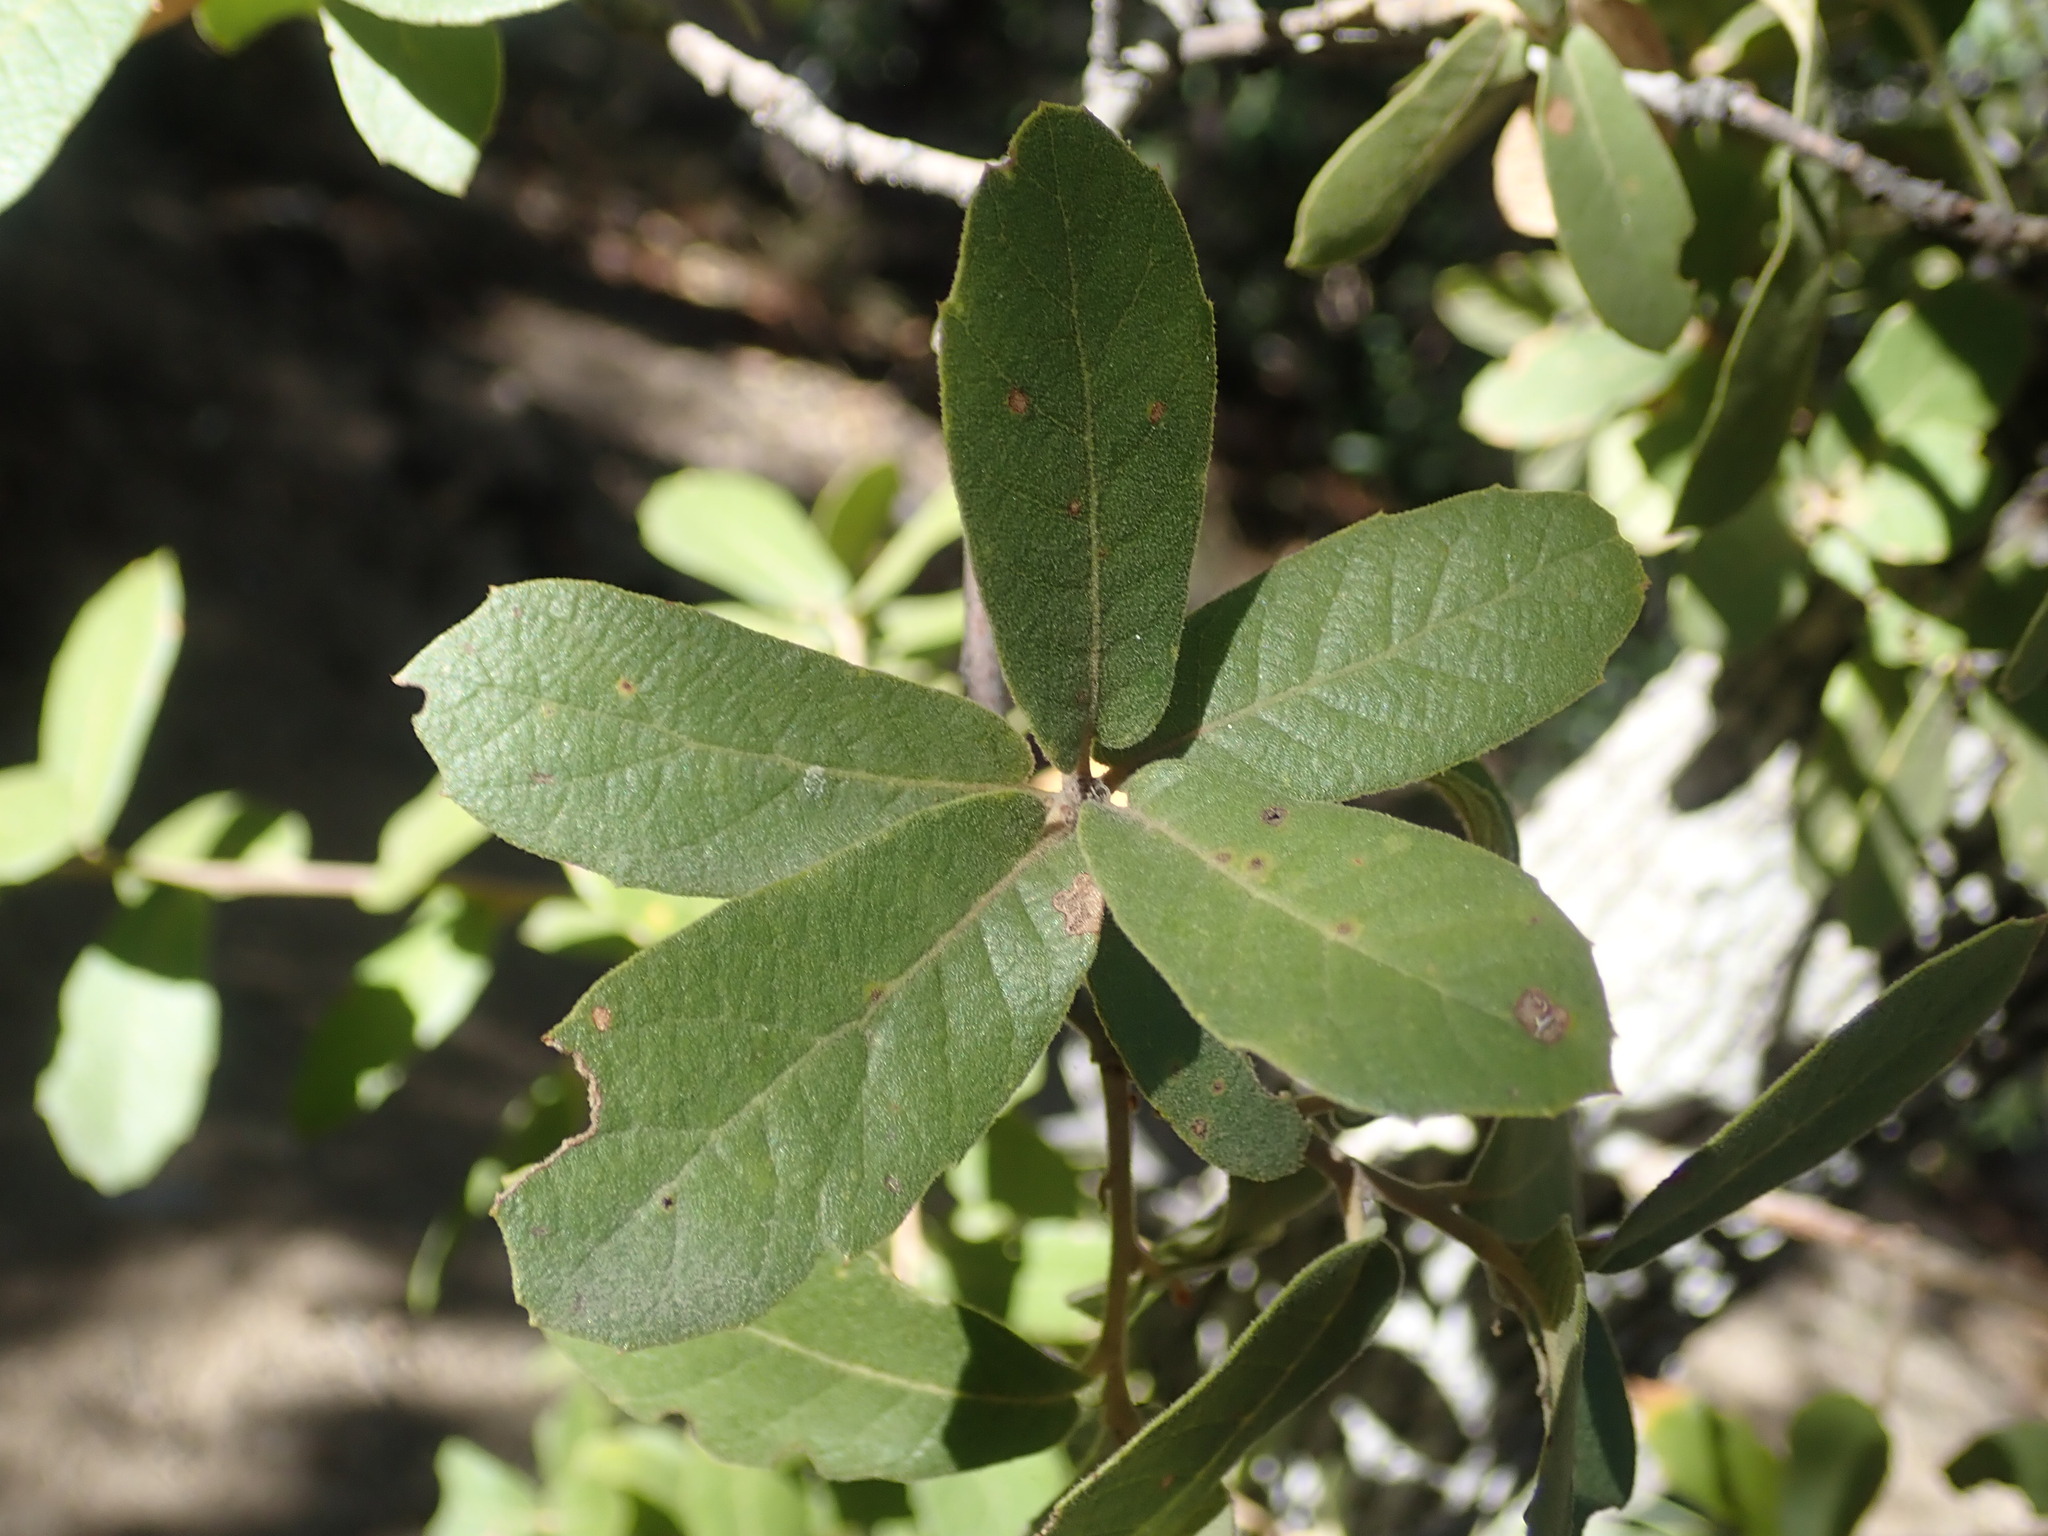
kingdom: Plantae
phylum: Tracheophyta
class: Magnoliopsida
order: Fagales
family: Fagaceae
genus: Quercus
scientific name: Quercus arizonica
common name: Arizona white oak
